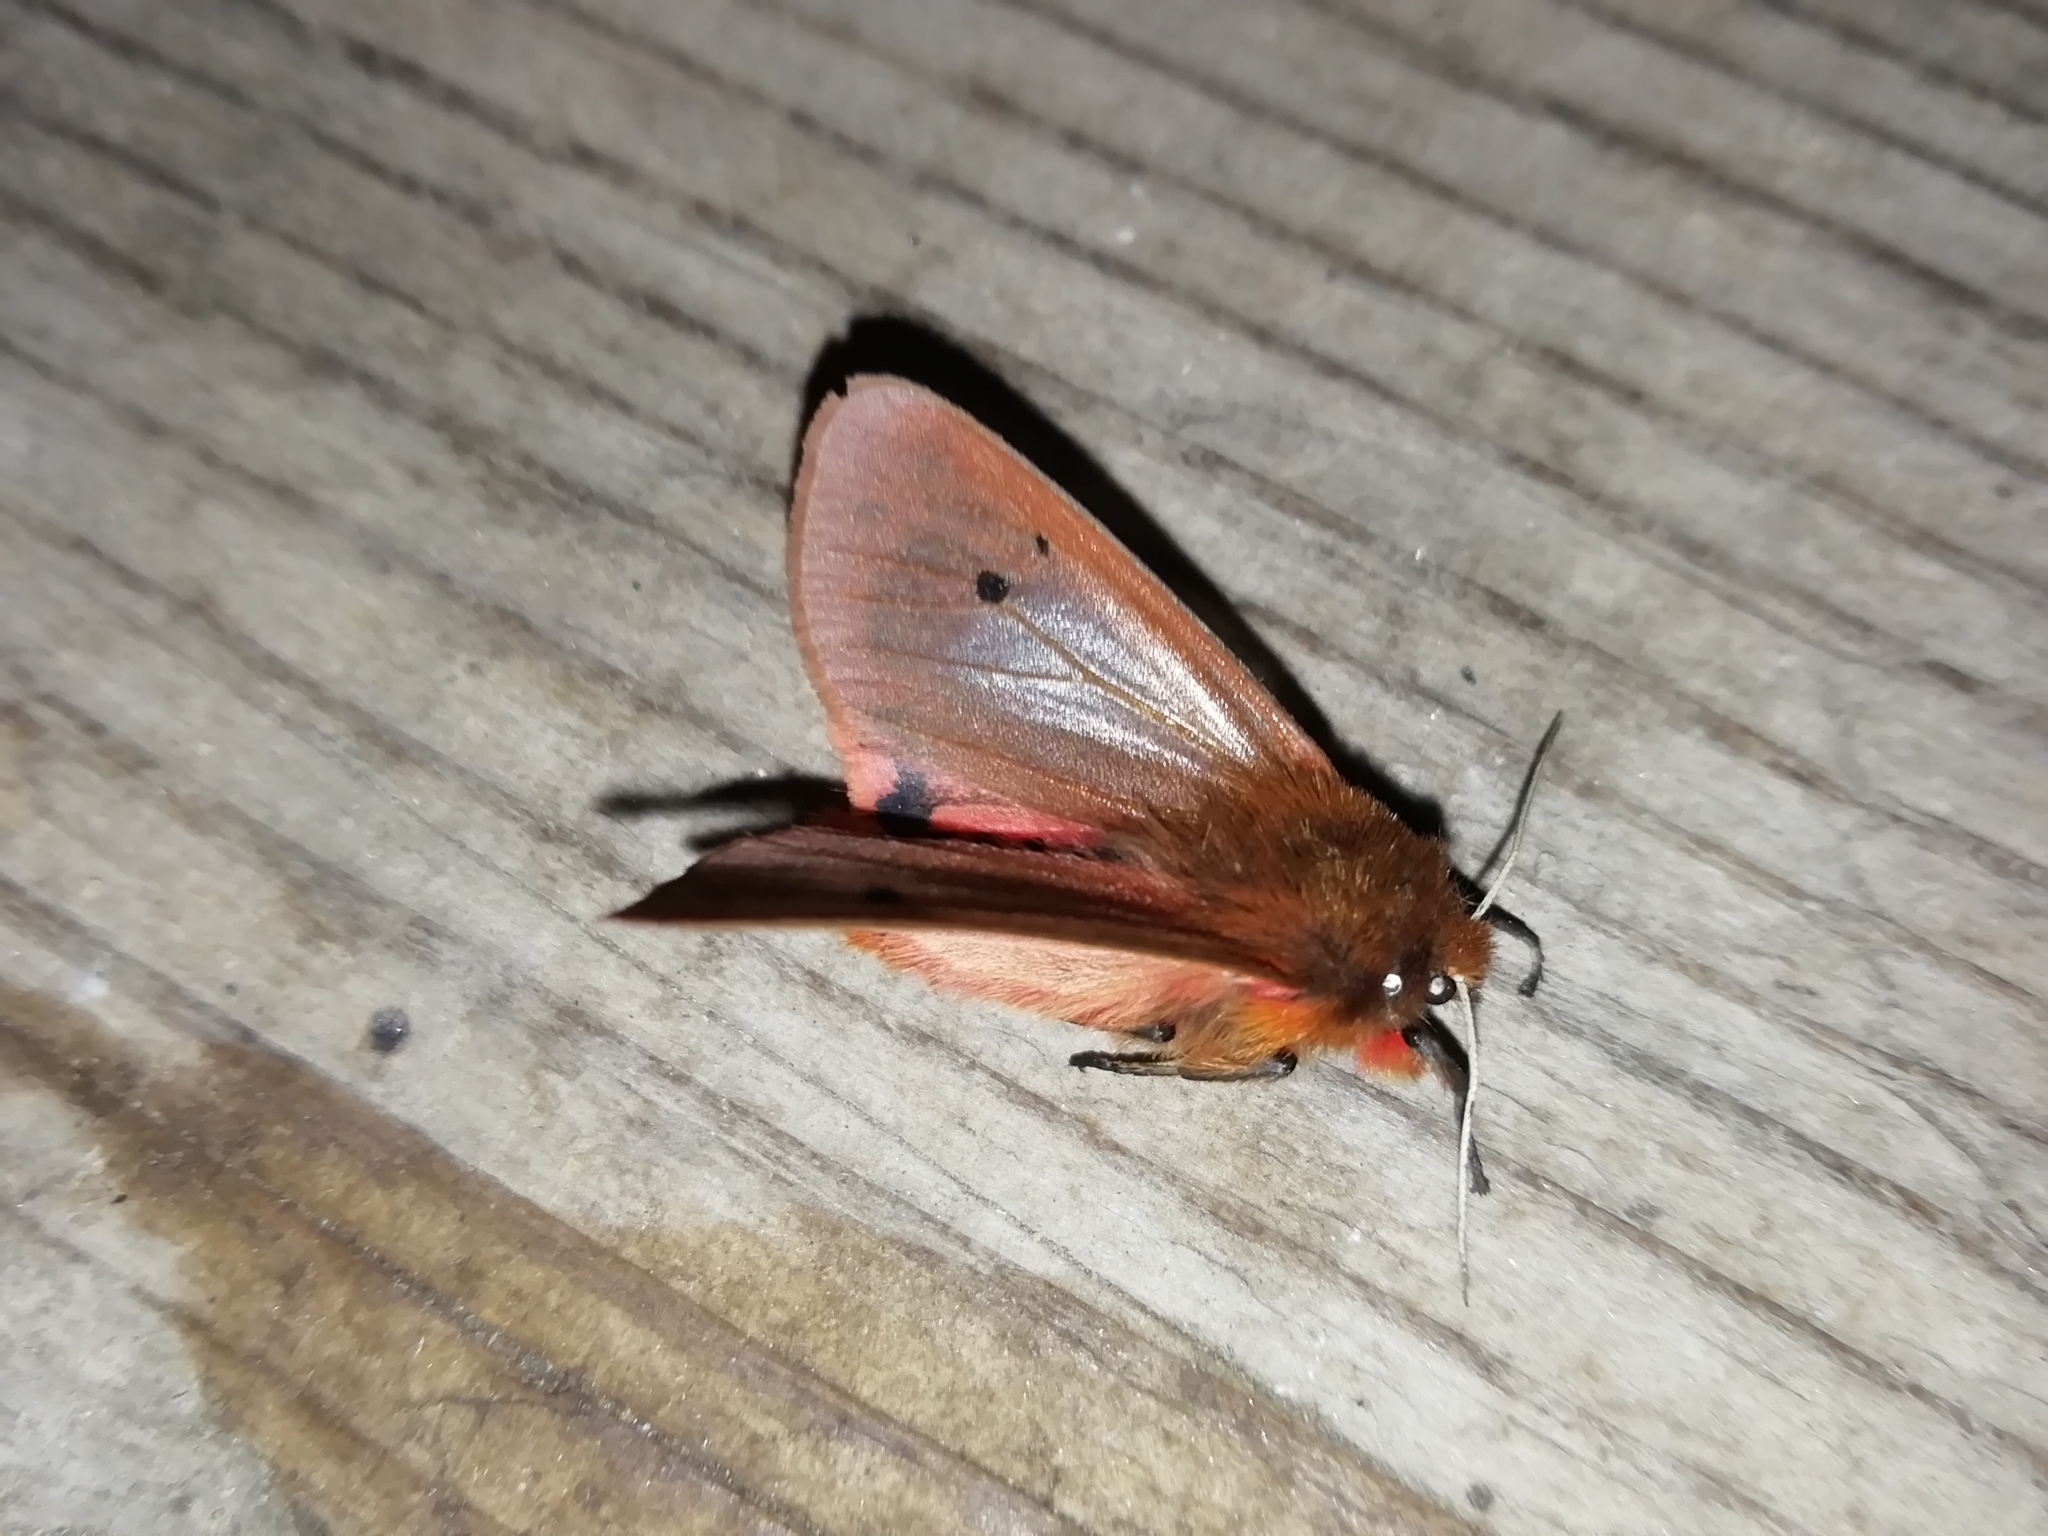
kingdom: Animalia
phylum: Arthropoda
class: Insecta
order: Lepidoptera
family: Erebidae
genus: Phragmatobia
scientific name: Phragmatobia fuliginosa
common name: Ruby tiger
